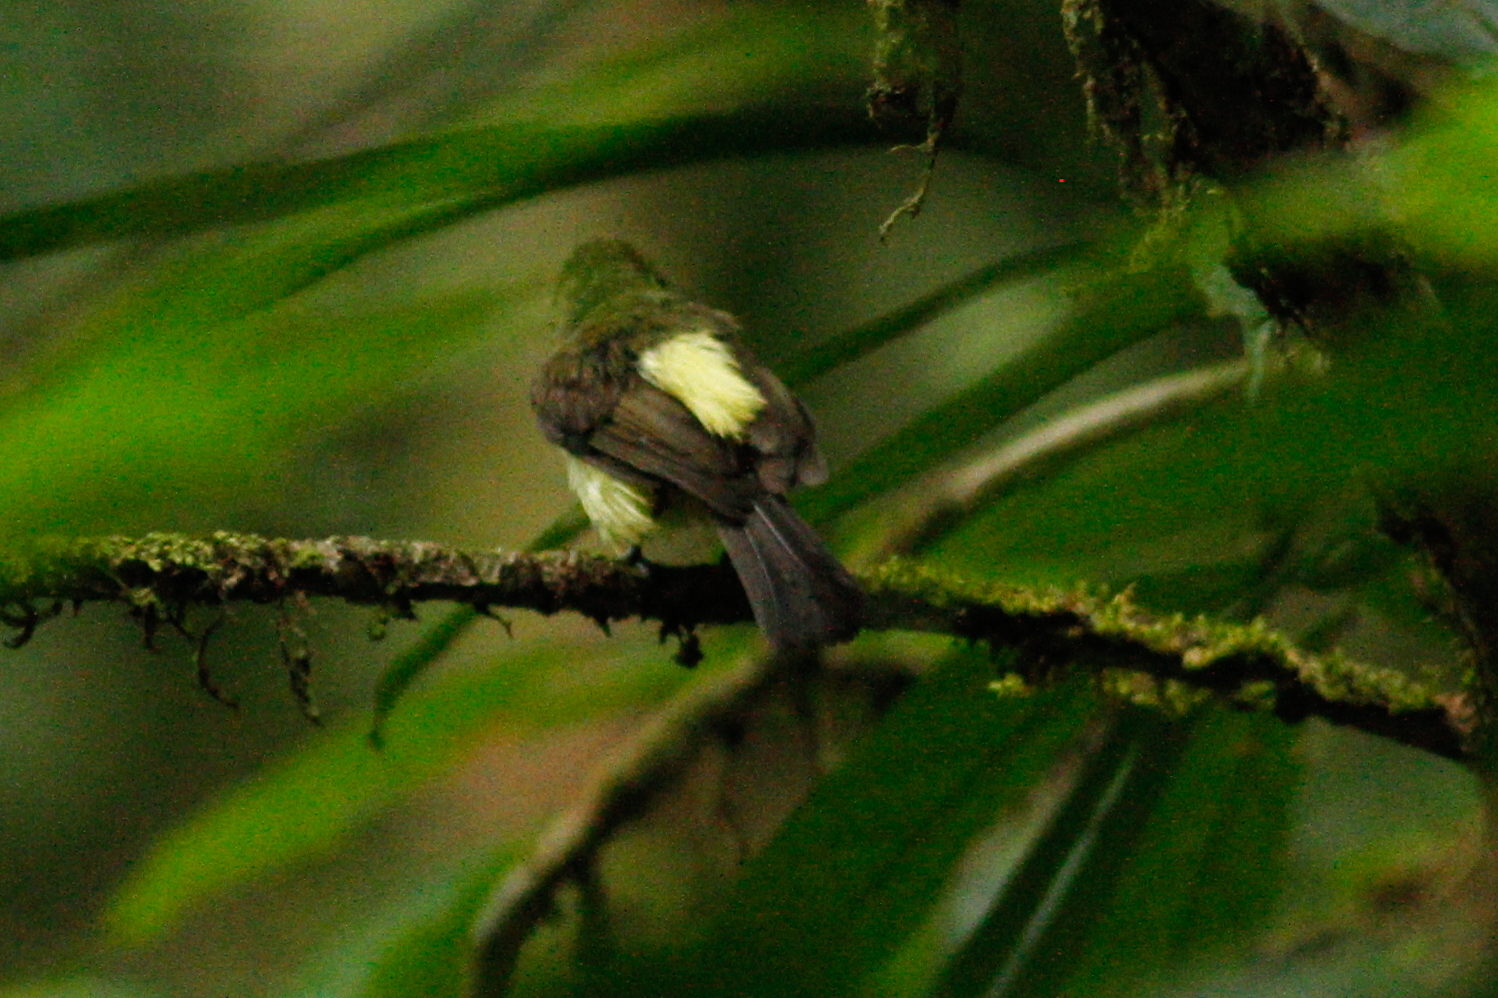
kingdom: Animalia
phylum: Chordata
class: Aves
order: Passeriformes
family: Tyrannidae
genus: Myiobius
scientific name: Myiobius barbatus
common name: Whiskered myiobius
